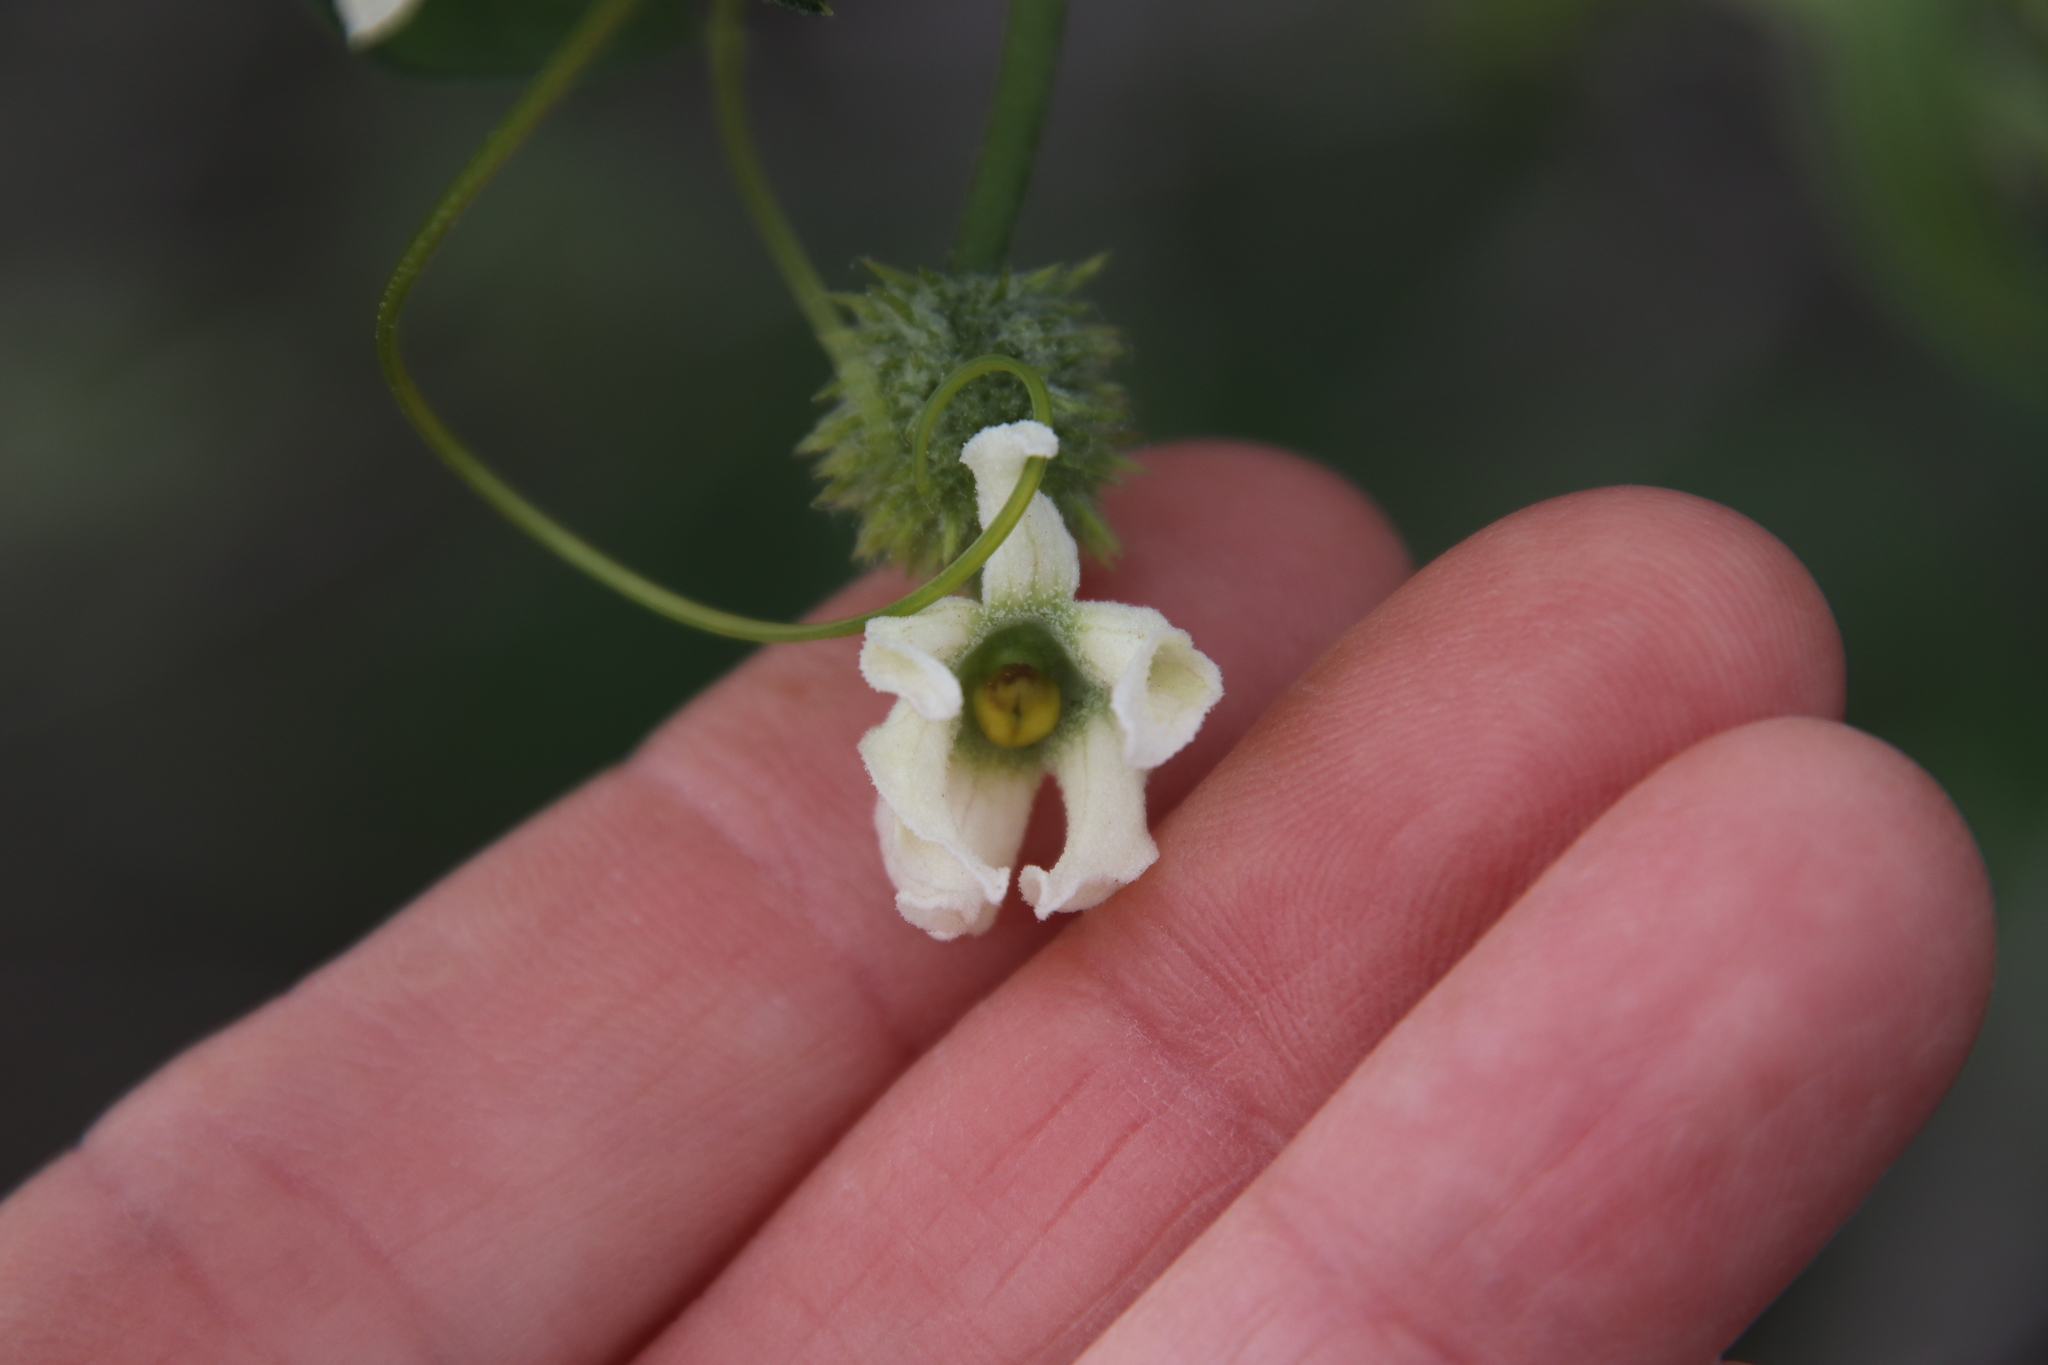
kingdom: Plantae
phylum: Tracheophyta
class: Magnoliopsida
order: Cucurbitales
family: Cucurbitaceae
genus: Marah
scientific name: Marah macrocarpa
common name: Cucamonga manroot
